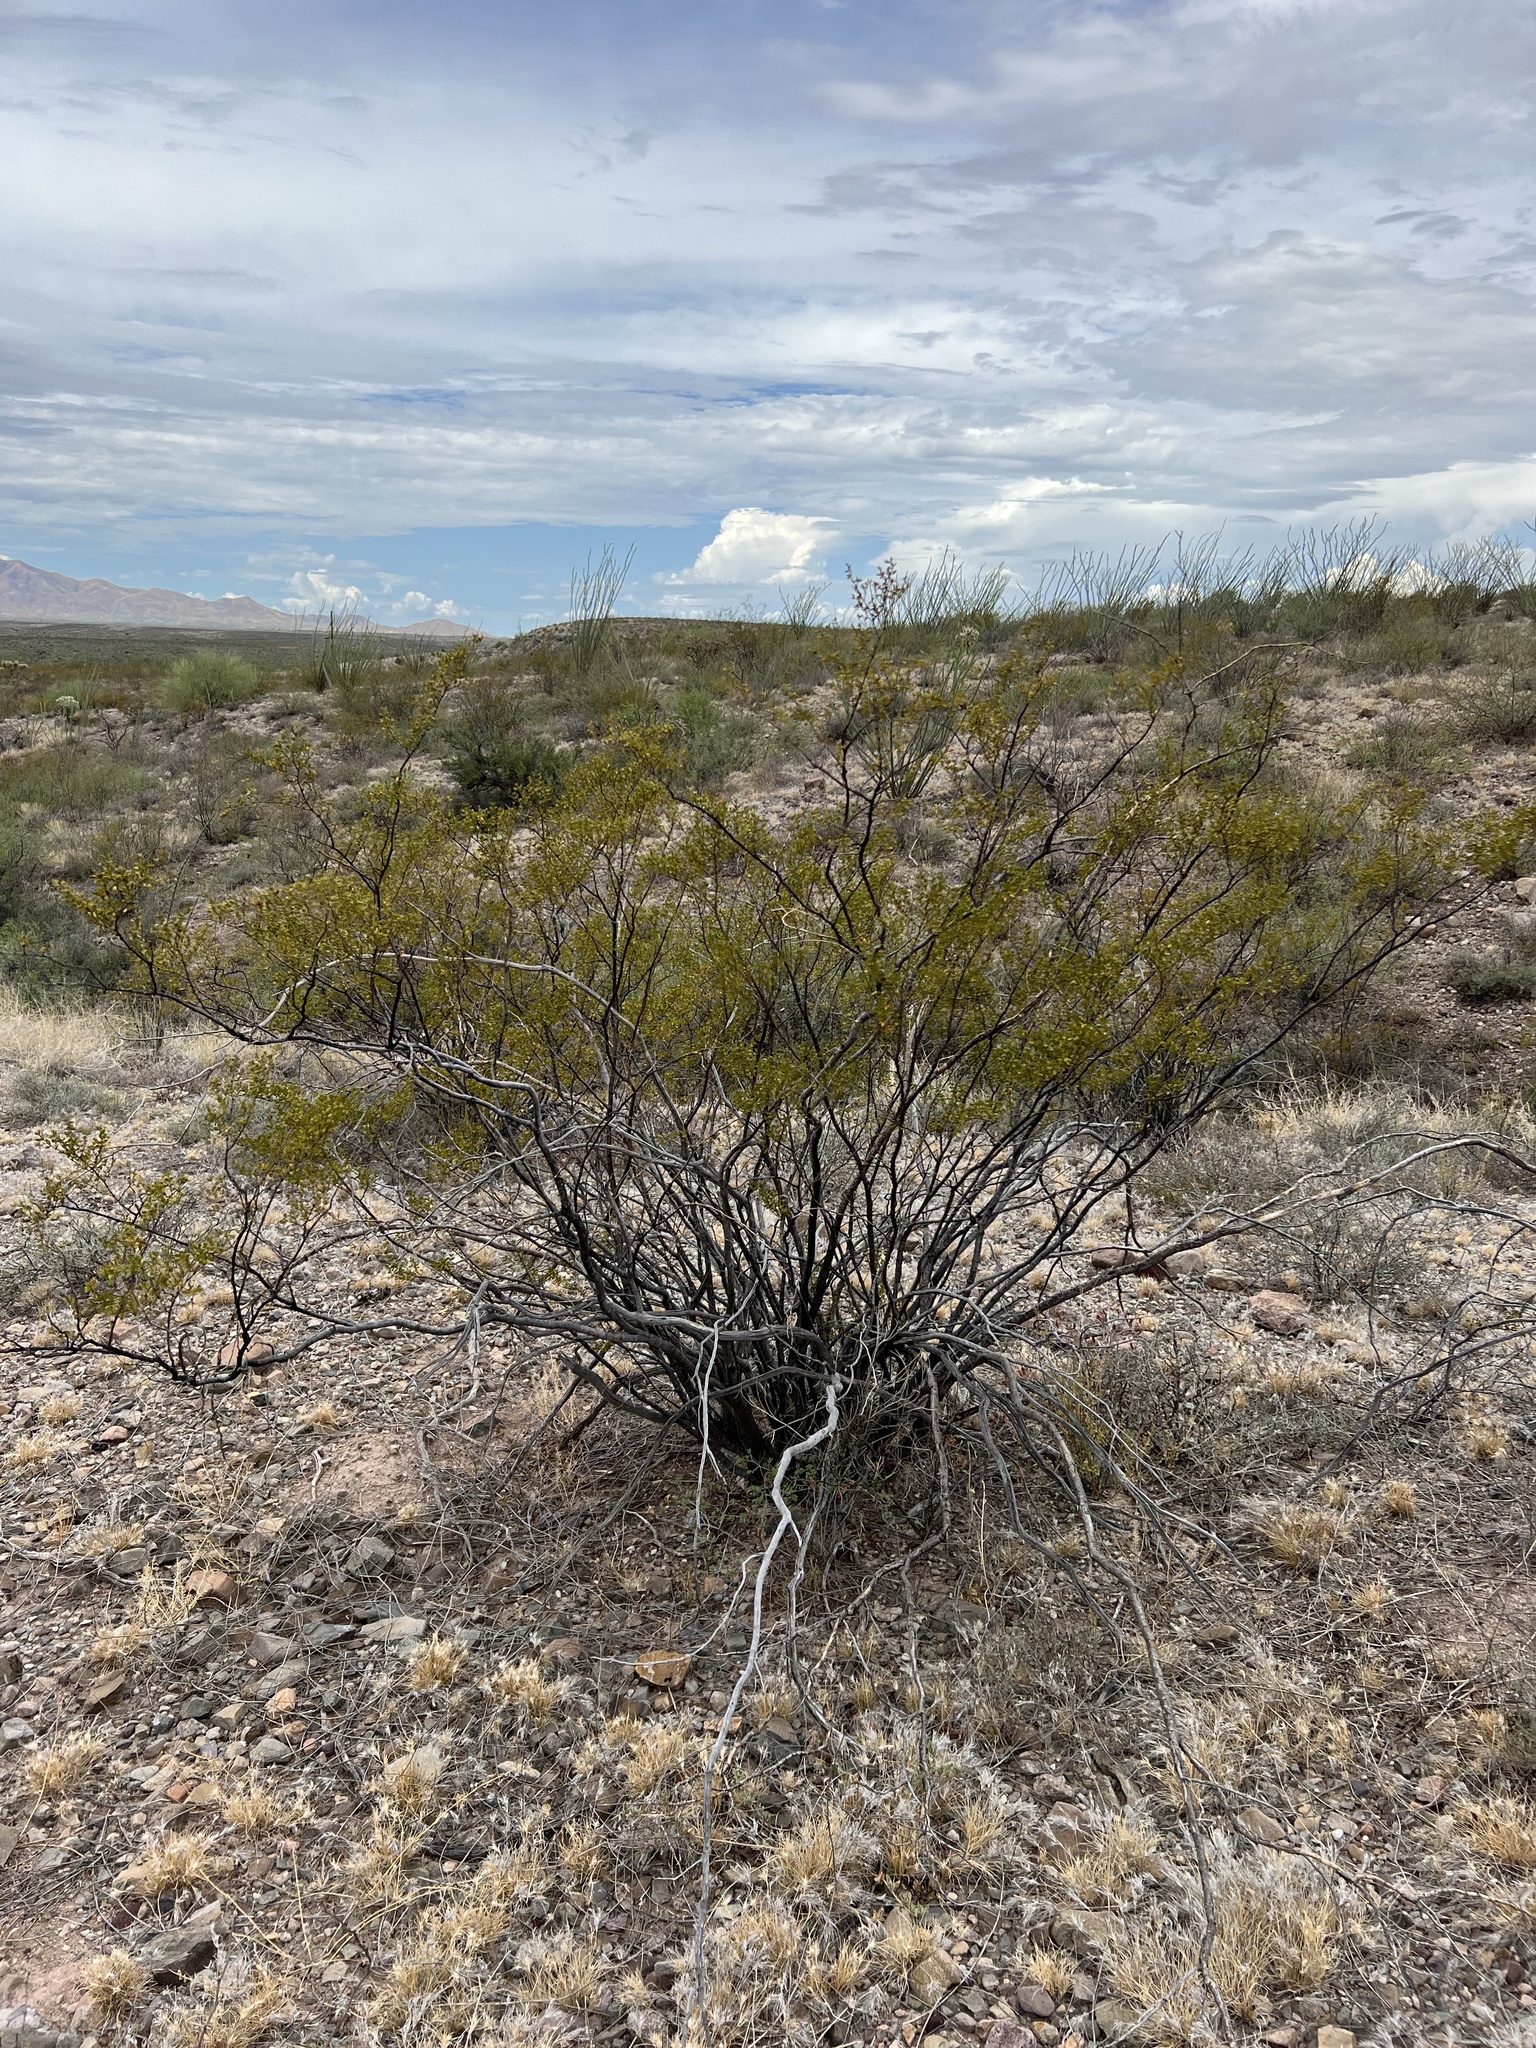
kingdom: Plantae
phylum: Tracheophyta
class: Magnoliopsida
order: Zygophyllales
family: Zygophyllaceae
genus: Larrea
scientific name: Larrea tridentata
